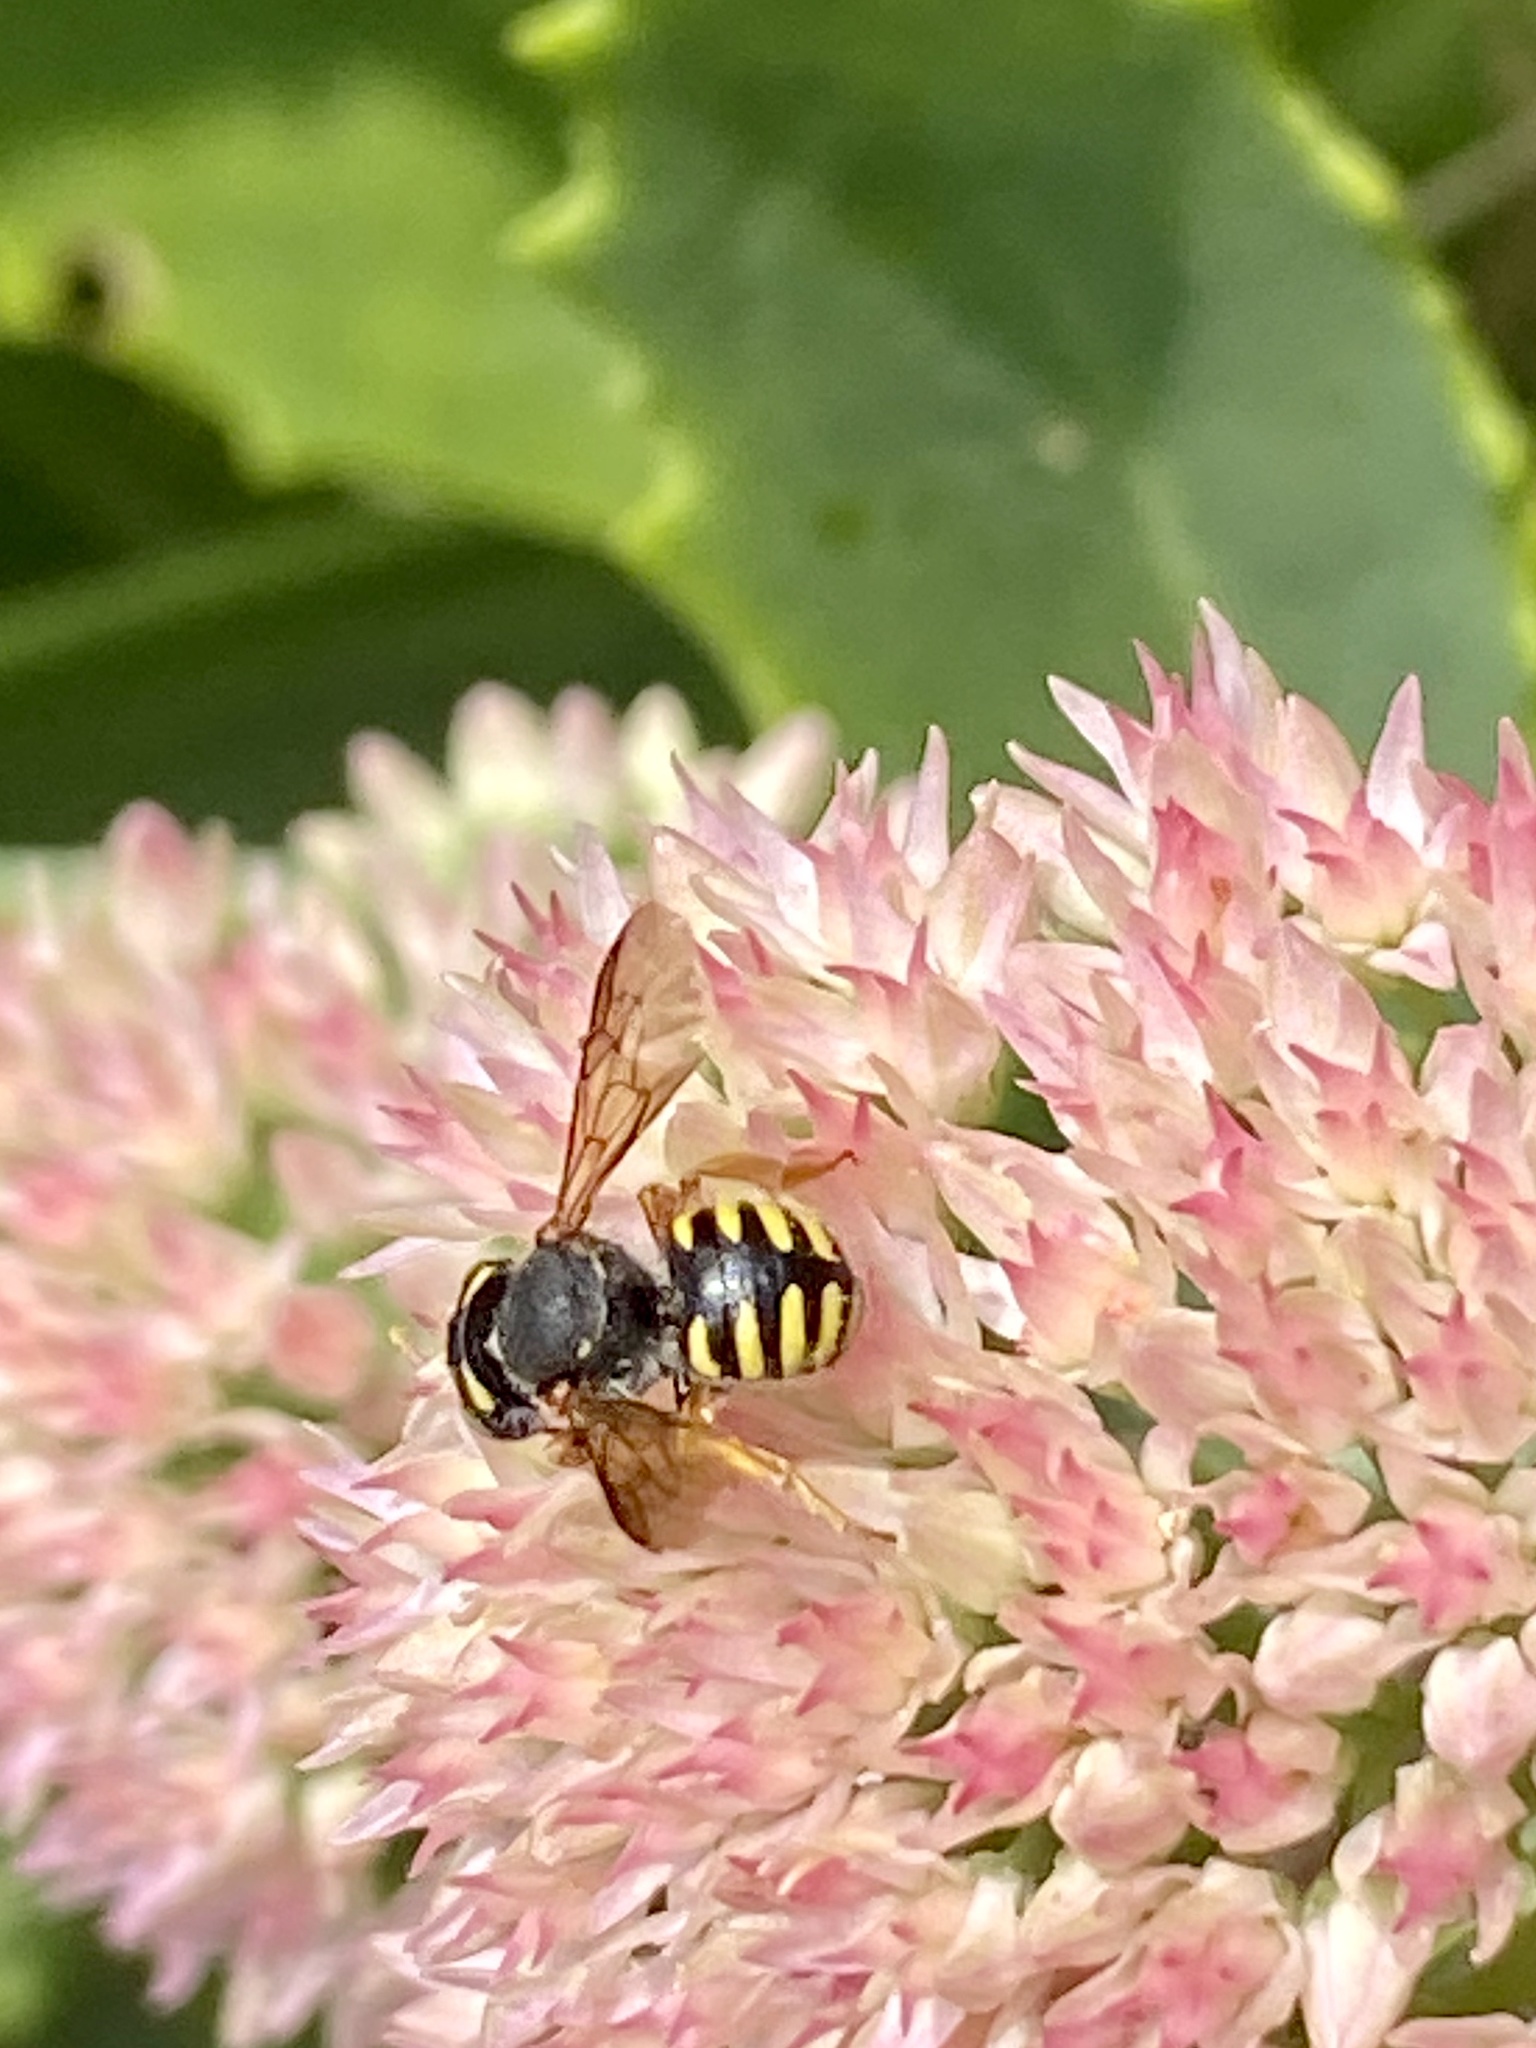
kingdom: Animalia
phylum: Arthropoda
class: Insecta
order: Hymenoptera
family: Megachilidae
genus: Anthidium
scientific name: Anthidium oblongatum
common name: Oblong wool carder bee
